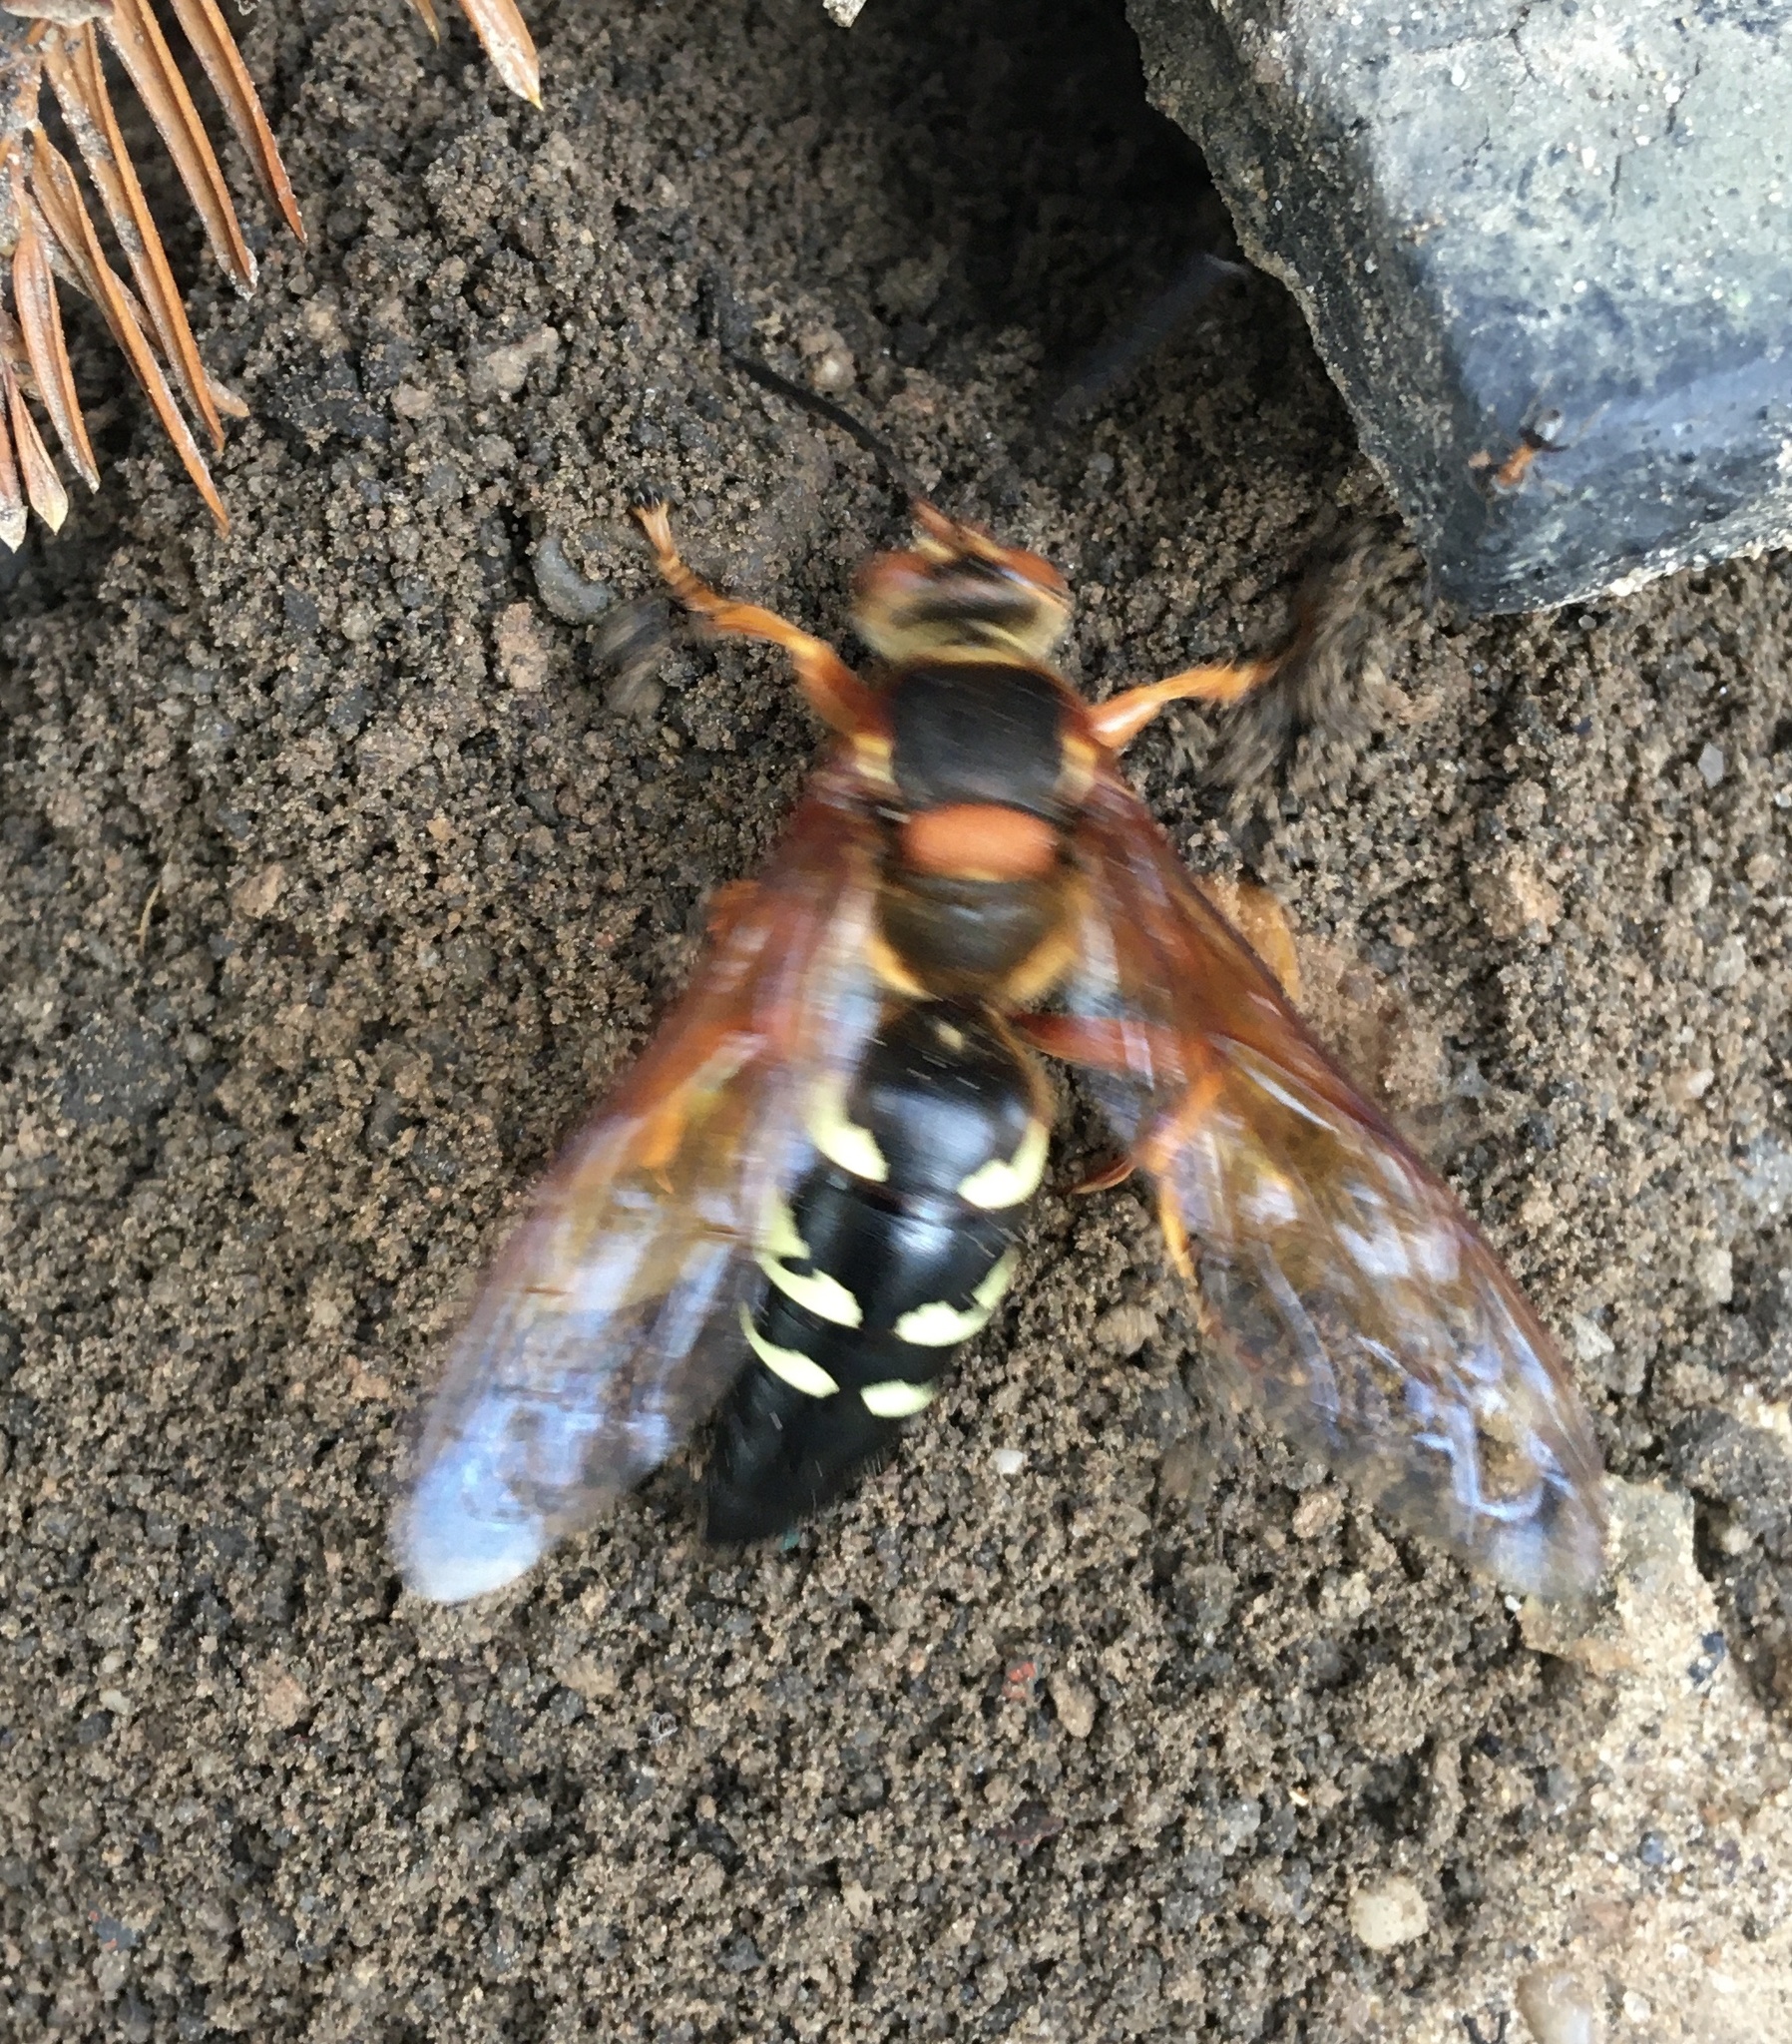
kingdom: Animalia
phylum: Arthropoda
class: Insecta
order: Hymenoptera
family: Crabronidae
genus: Sphecius
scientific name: Sphecius speciosus
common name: Cicada killer
